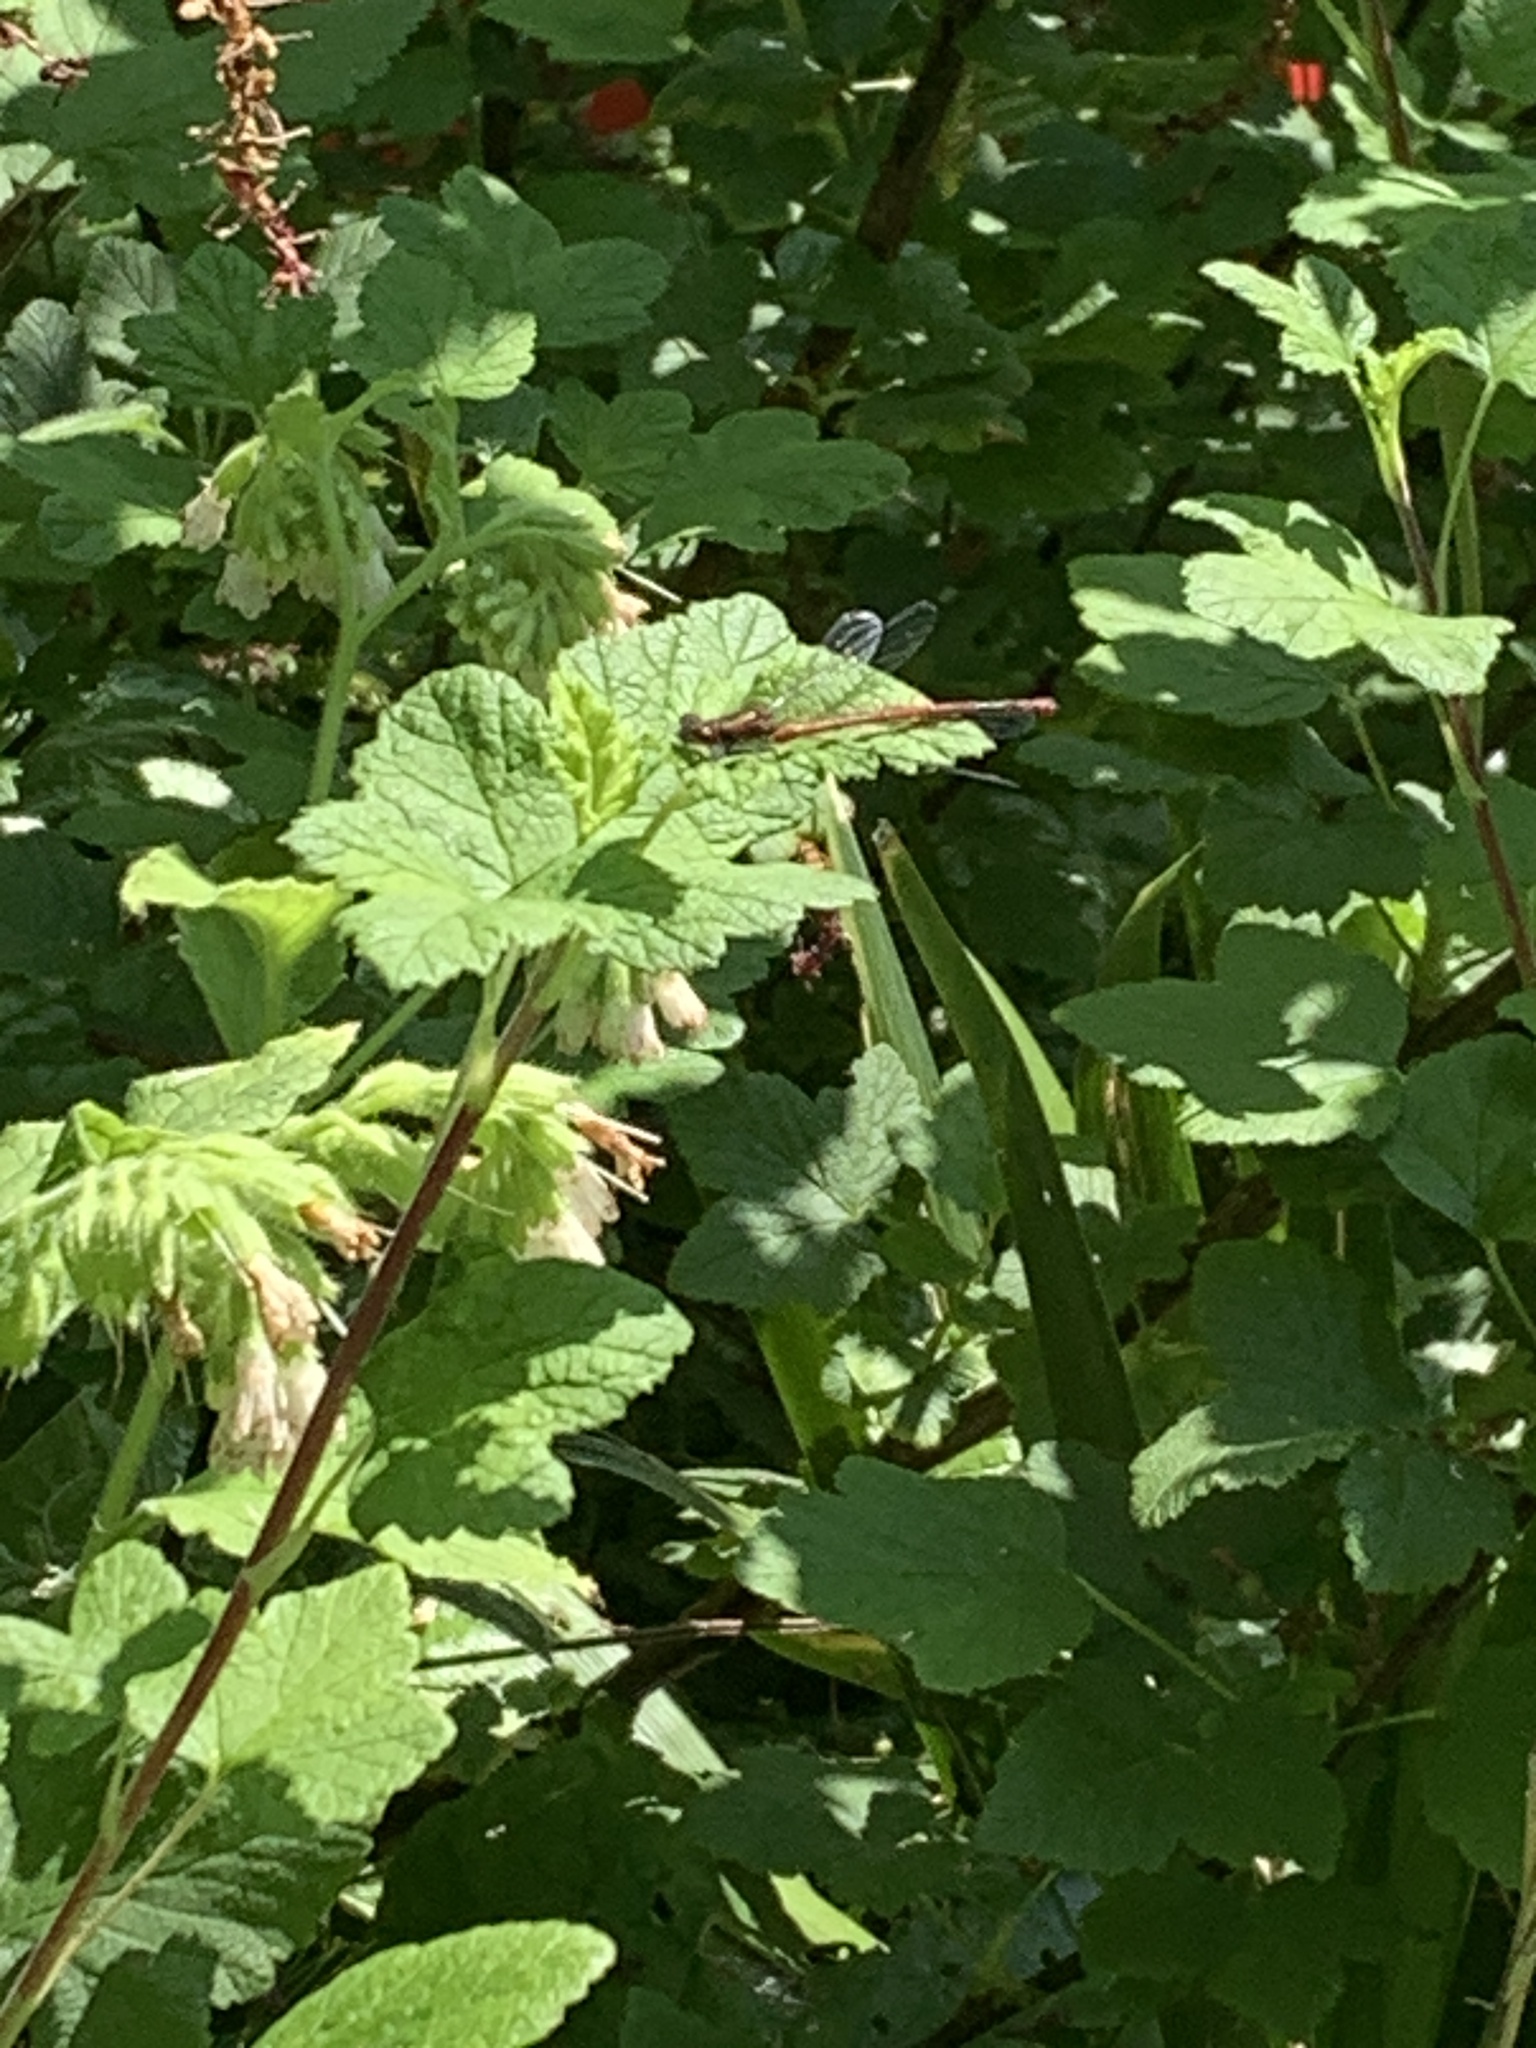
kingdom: Animalia
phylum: Arthropoda
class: Insecta
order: Odonata
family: Coenagrionidae
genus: Pyrrhosoma
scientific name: Pyrrhosoma nymphula
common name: Large red damsel
